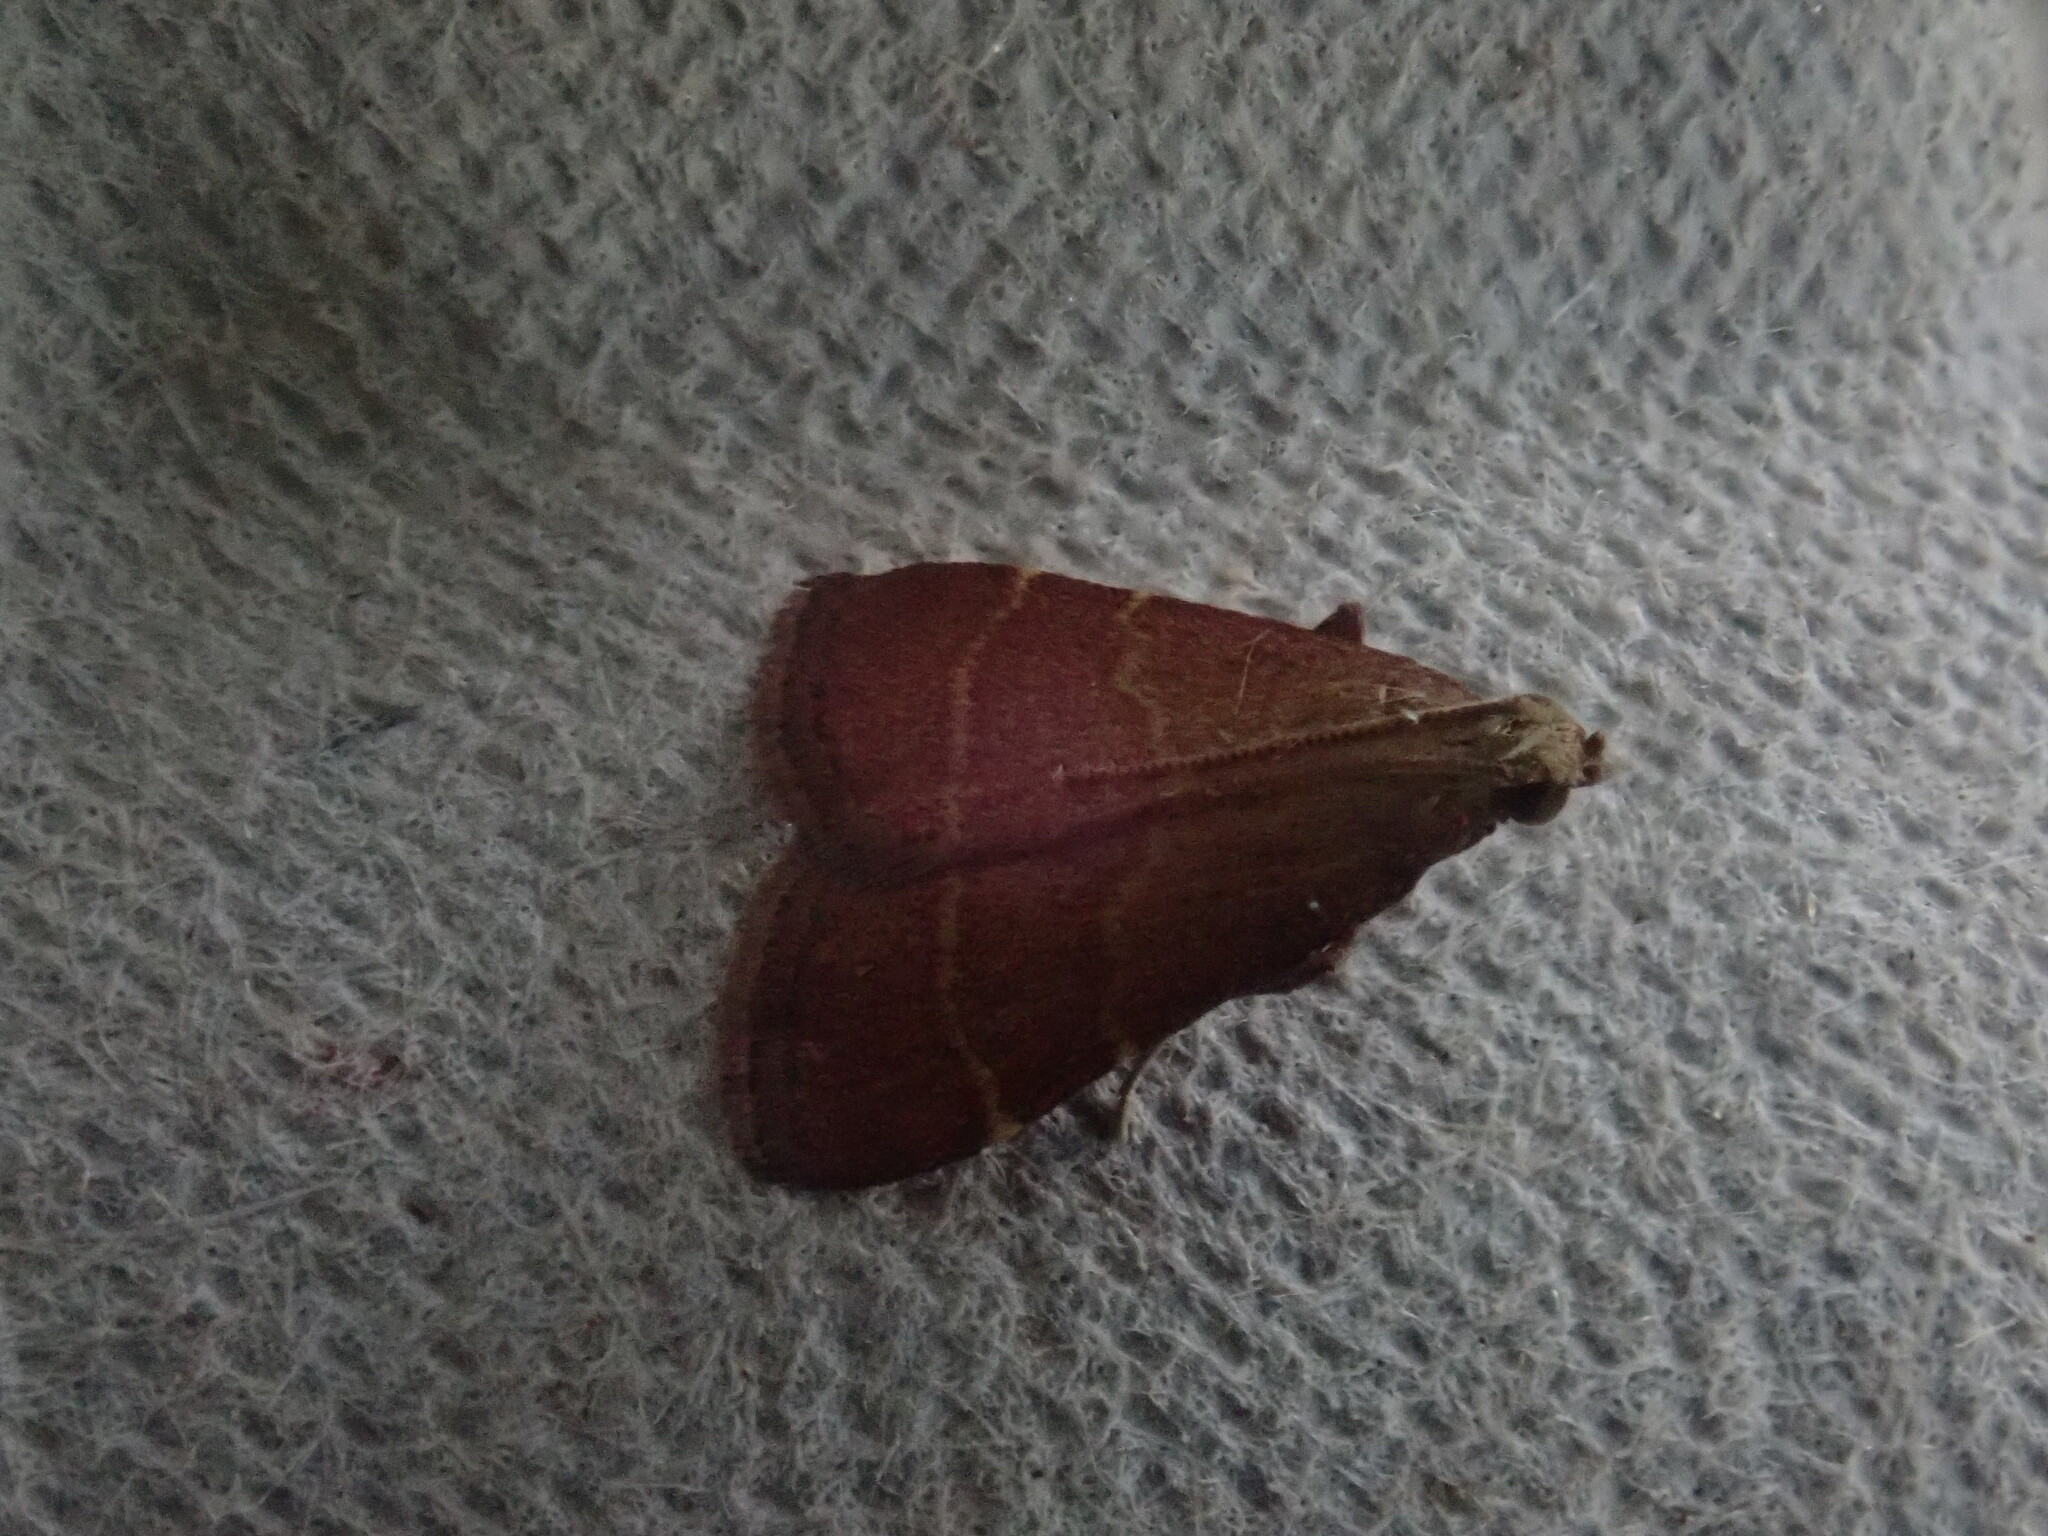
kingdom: Animalia
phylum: Arthropoda
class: Insecta
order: Lepidoptera
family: Pyralidae
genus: Arta
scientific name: Arta statalis
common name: Posturing arta moth
